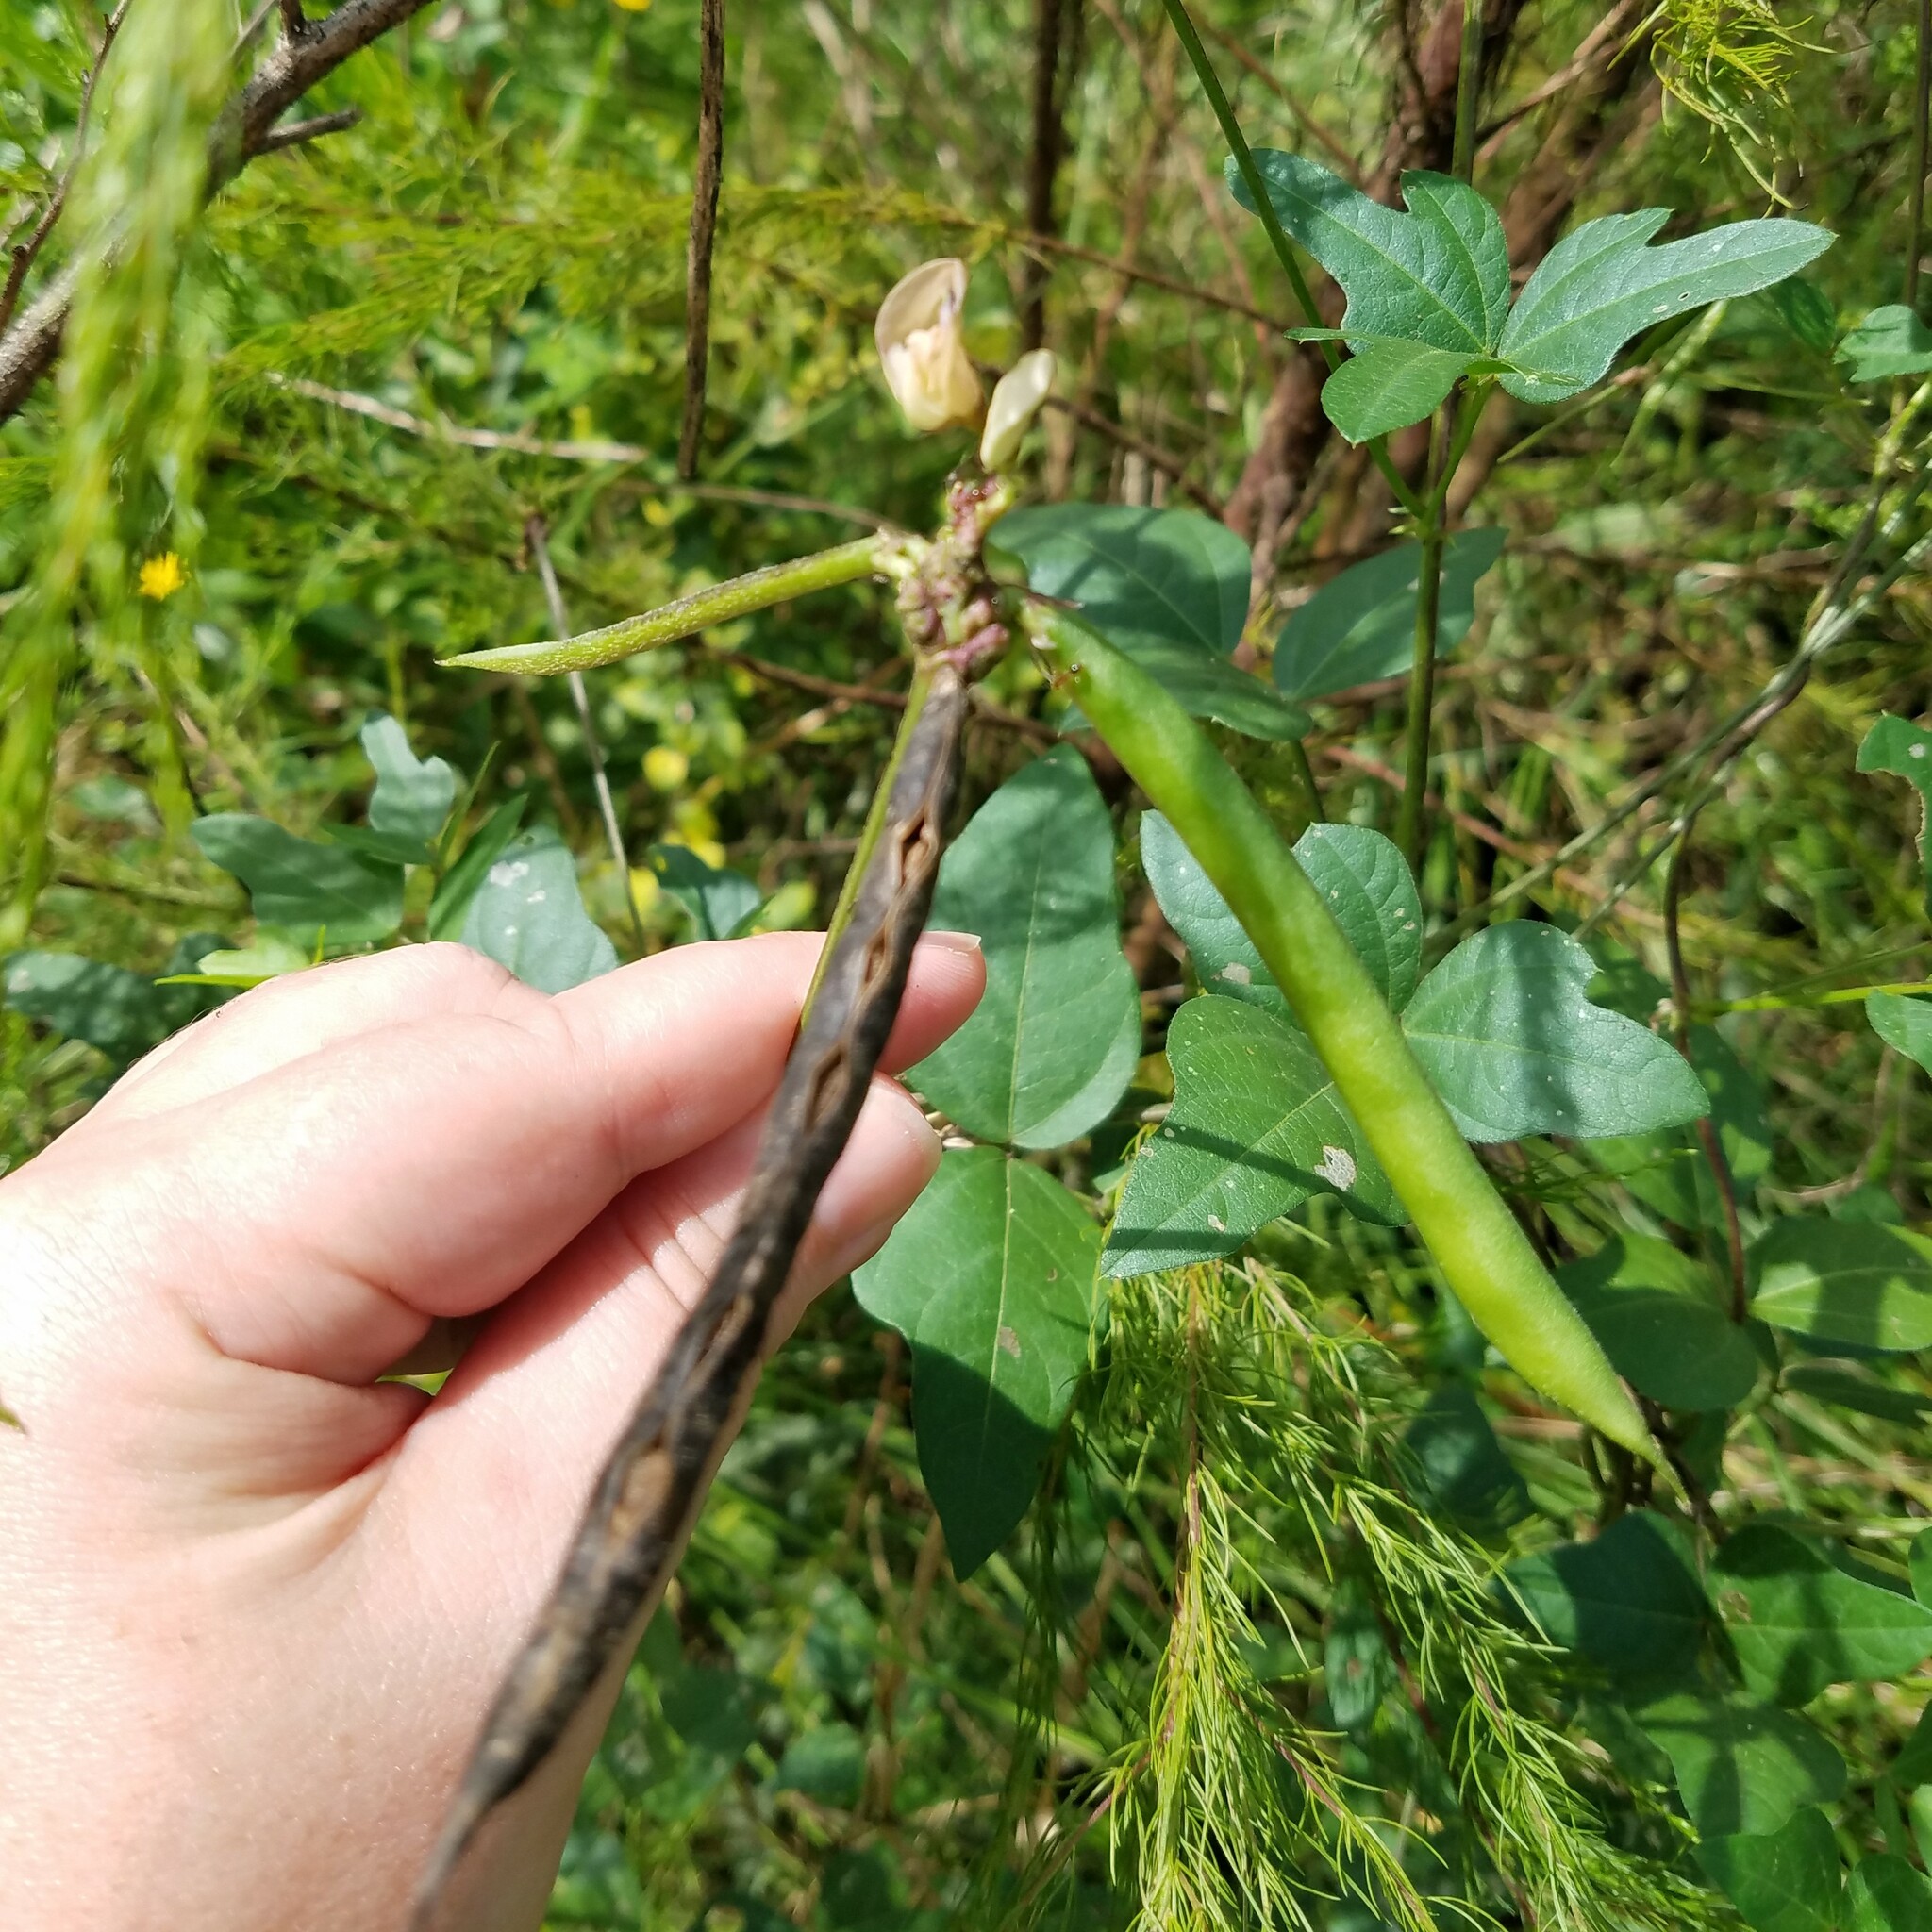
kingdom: Plantae
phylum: Tracheophyta
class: Magnoliopsida
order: Fabales
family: Fabaceae
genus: Strophostyles
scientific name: Strophostyles helvola
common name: Trailing wild bean
